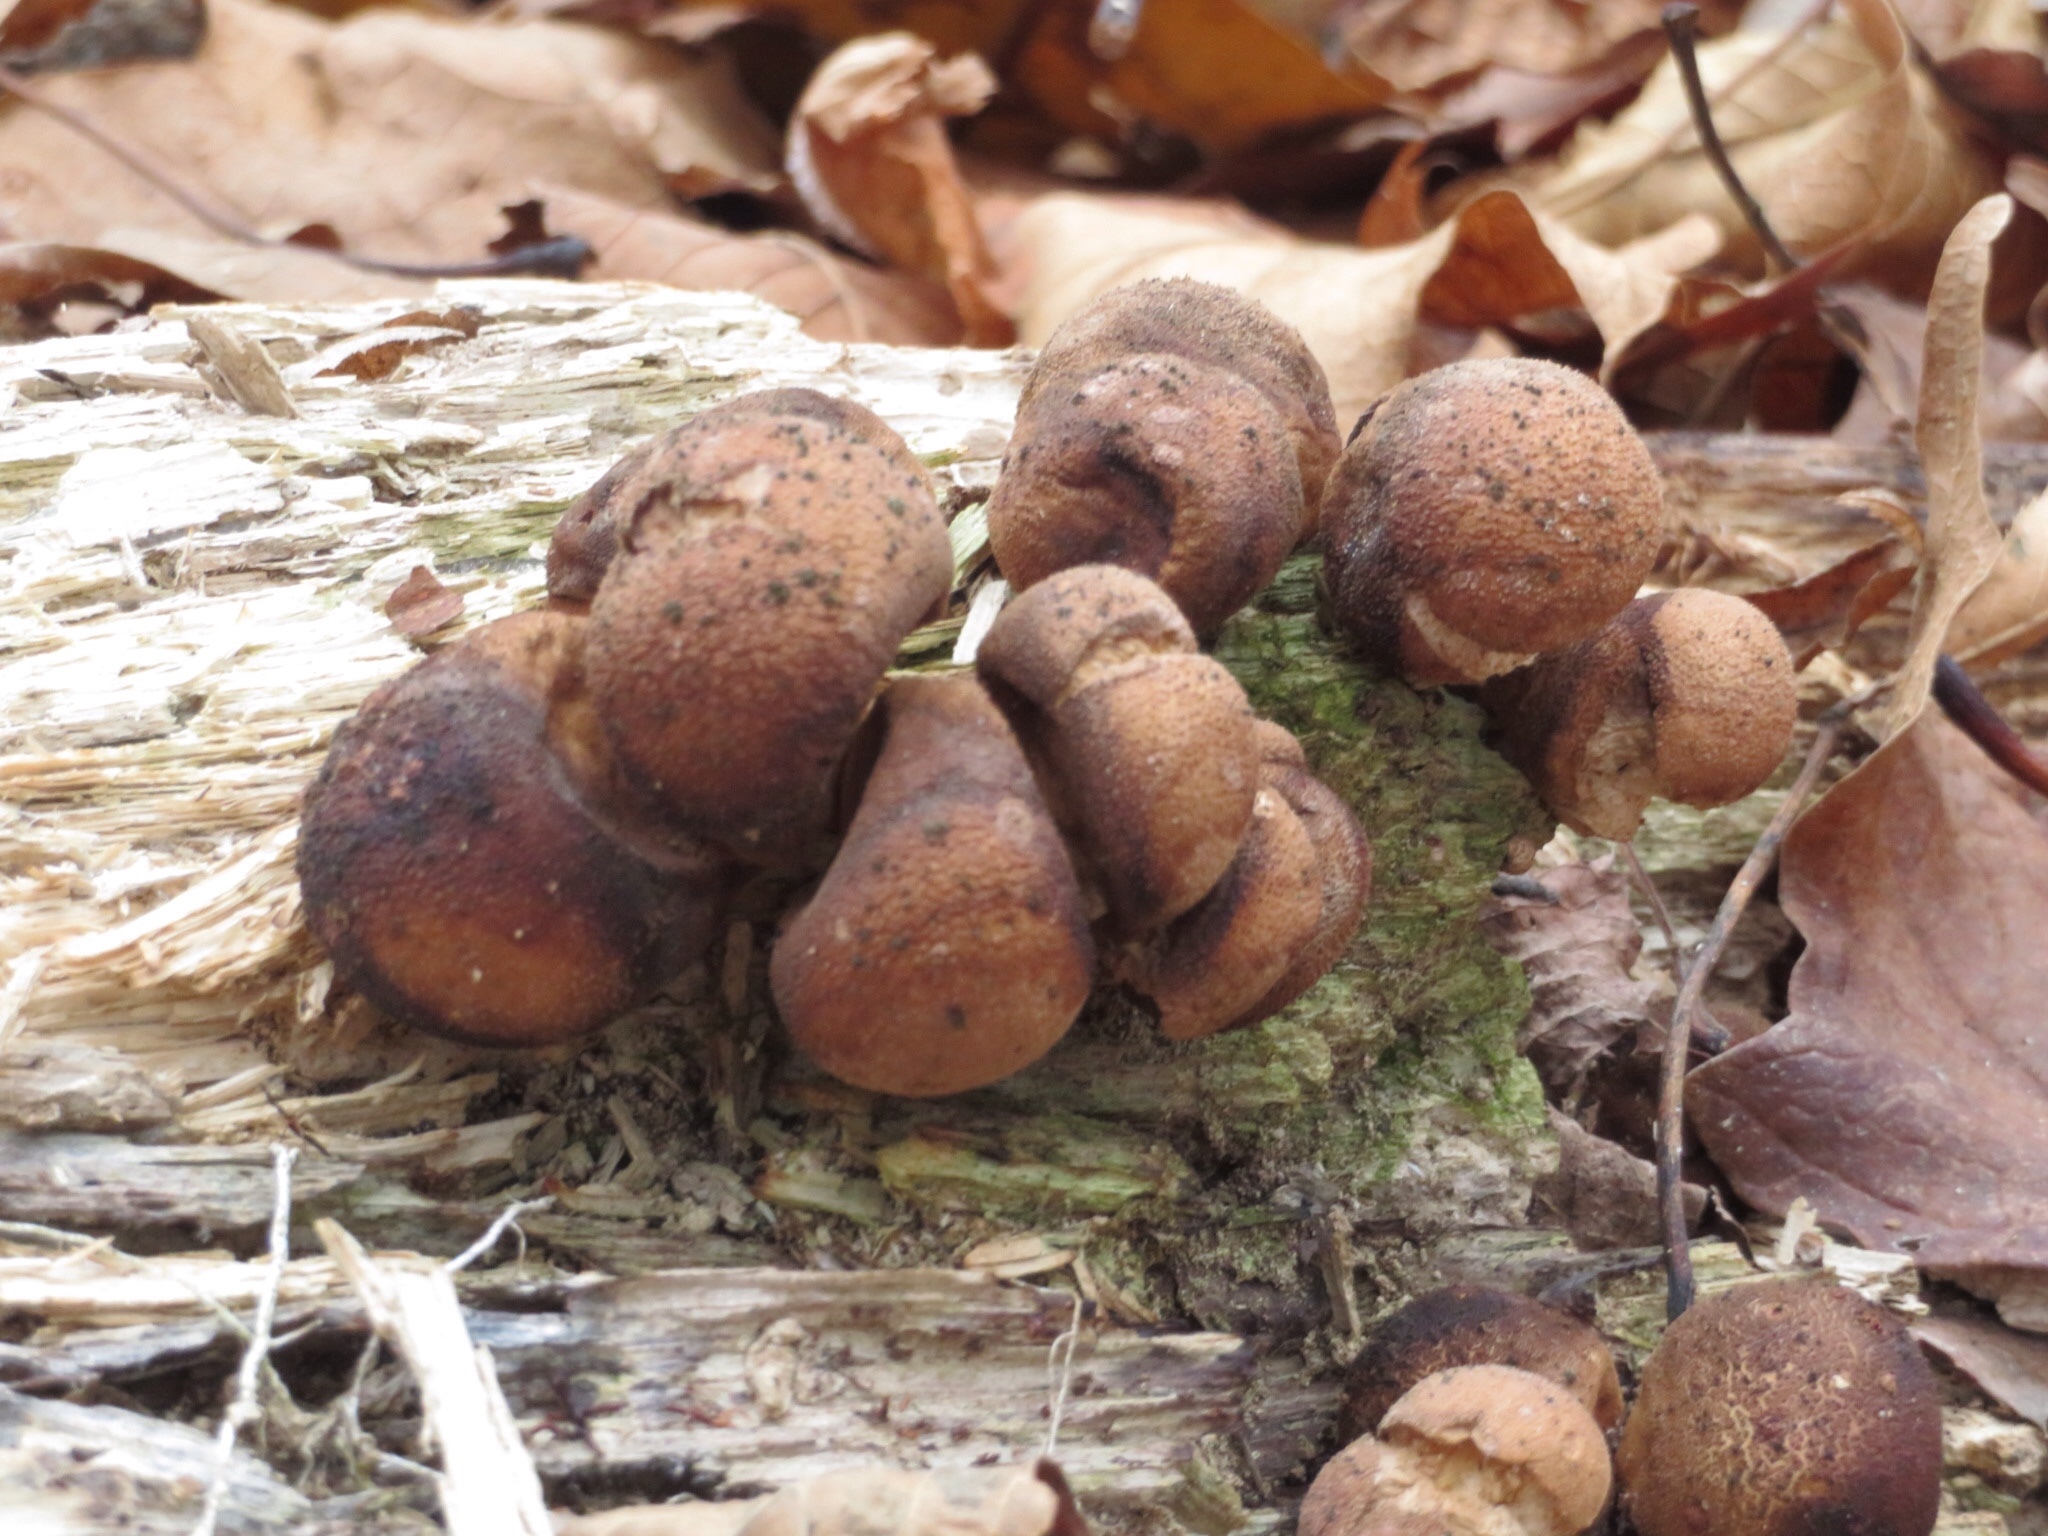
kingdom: Fungi
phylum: Basidiomycota
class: Agaricomycetes
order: Agaricales
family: Lycoperdaceae
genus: Apioperdon
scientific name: Apioperdon pyriforme
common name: Pear-shaped puffball
